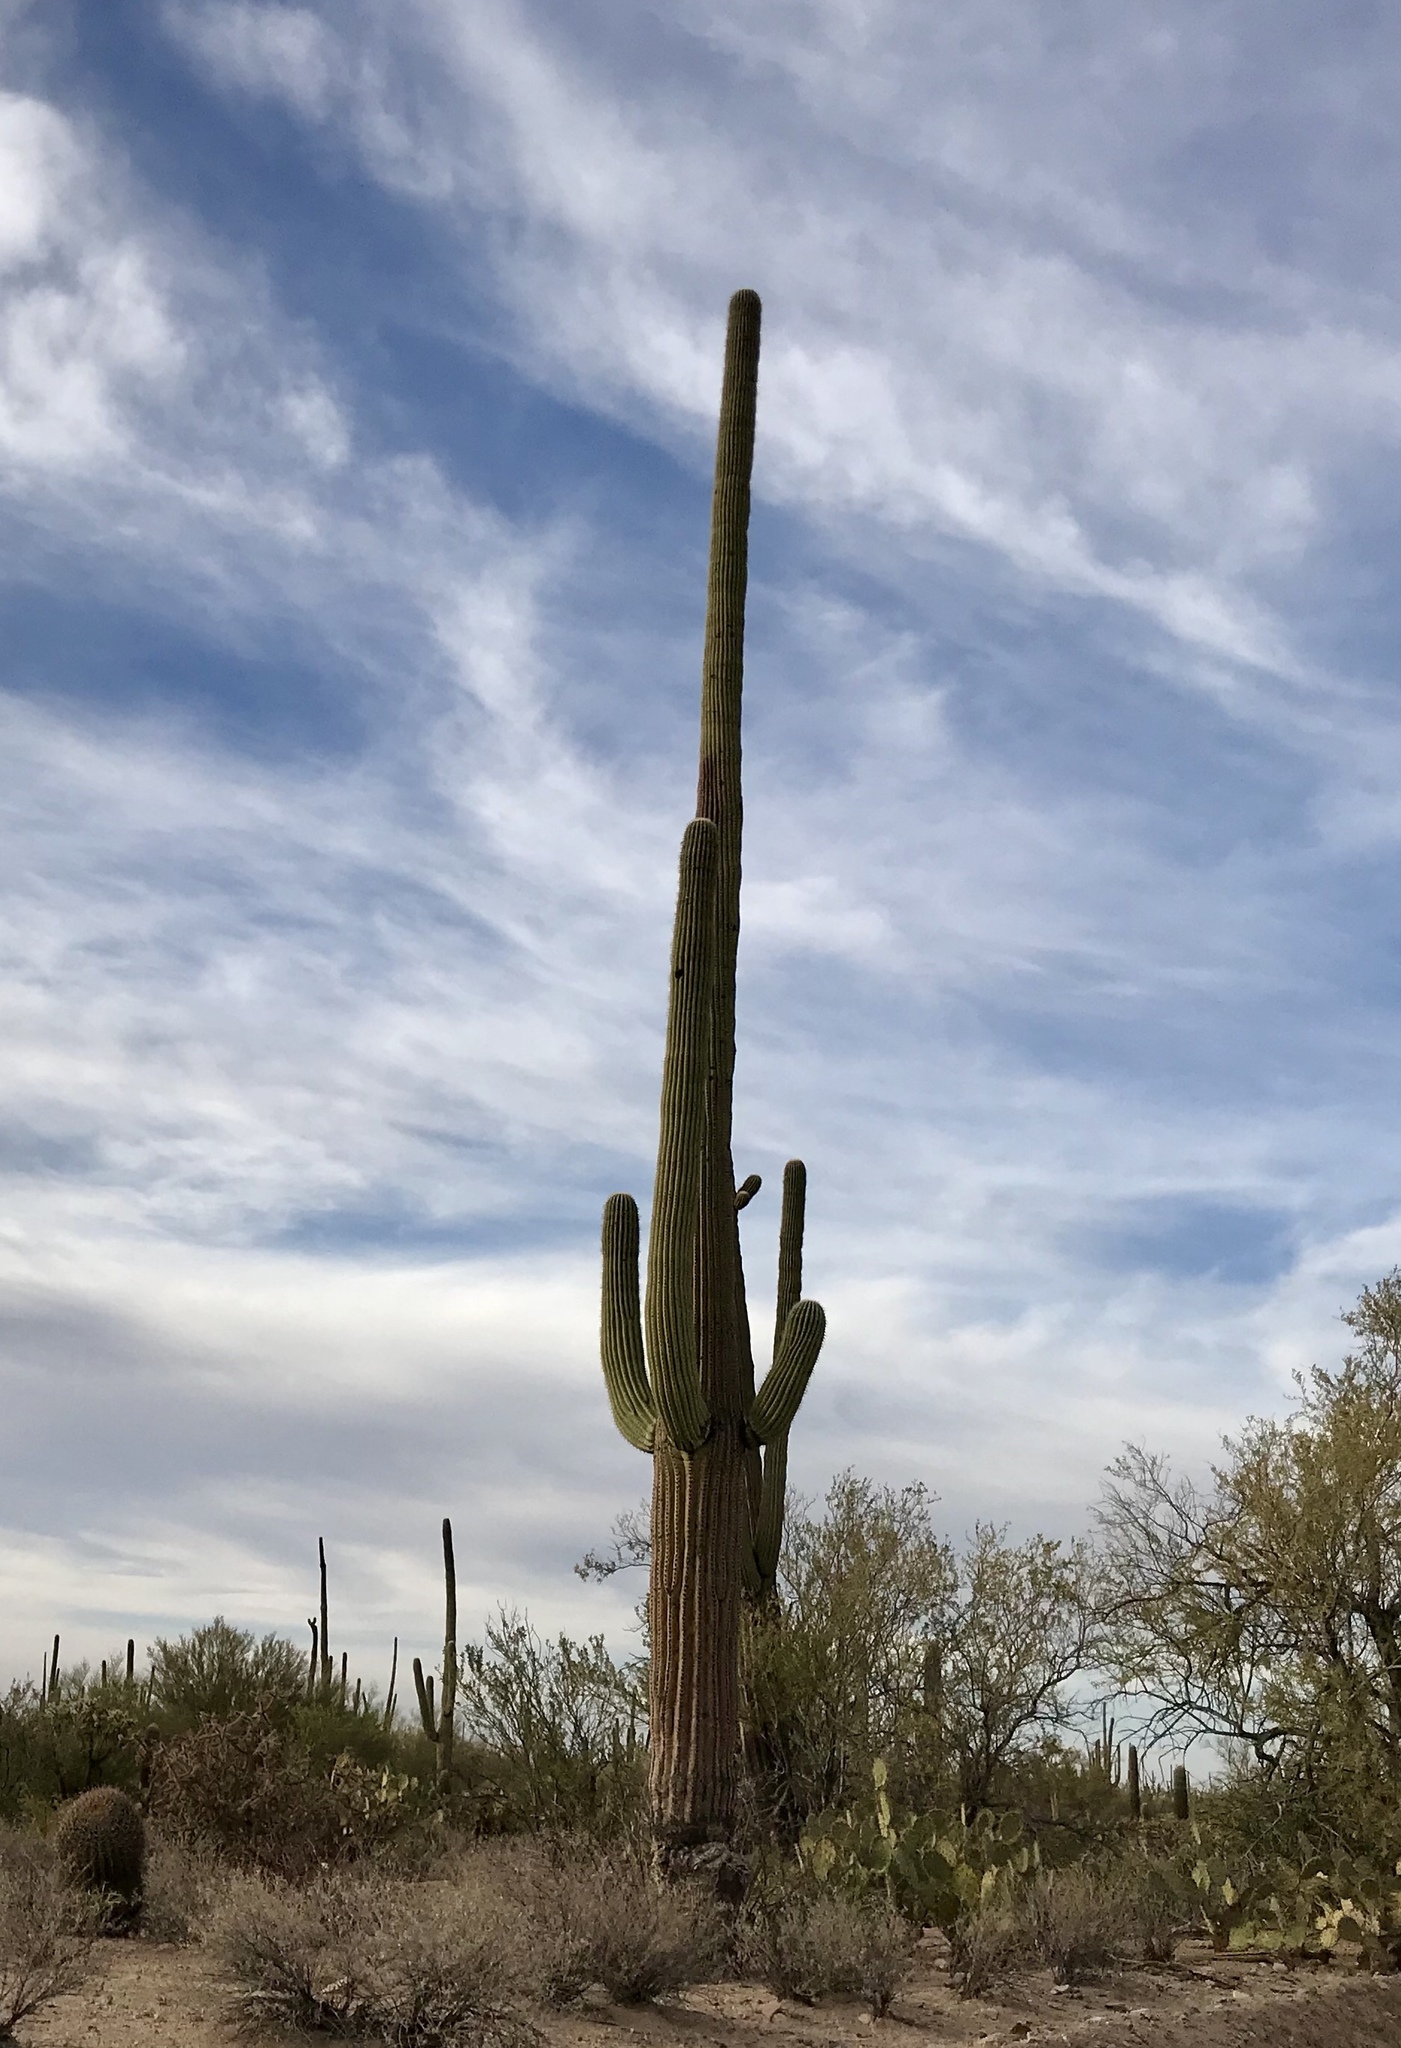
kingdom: Plantae
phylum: Tracheophyta
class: Magnoliopsida
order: Caryophyllales
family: Cactaceae
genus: Carnegiea
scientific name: Carnegiea gigantea
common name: Saguaro
